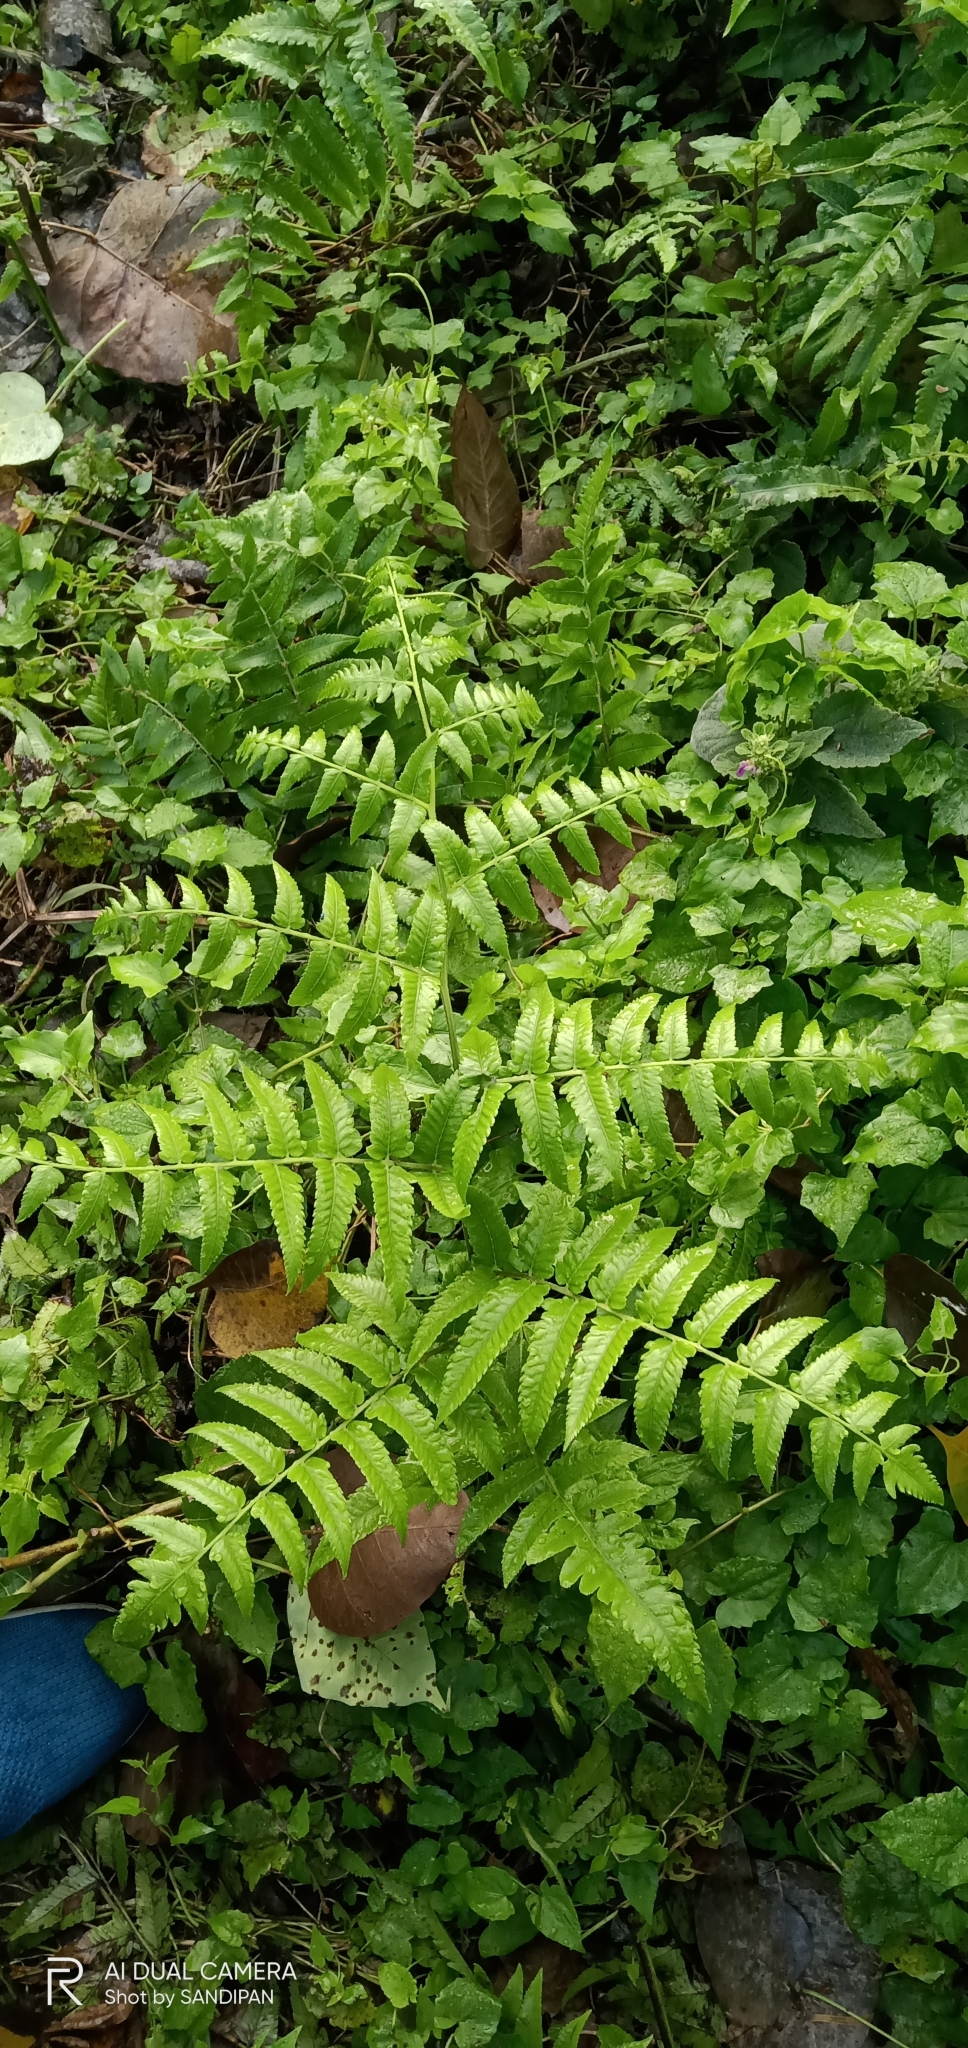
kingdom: Plantae
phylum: Tracheophyta
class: Polypodiopsida
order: Polypodiales
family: Athyriaceae
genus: Diplazium
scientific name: Diplazium esculentum
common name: Vegetable fern
